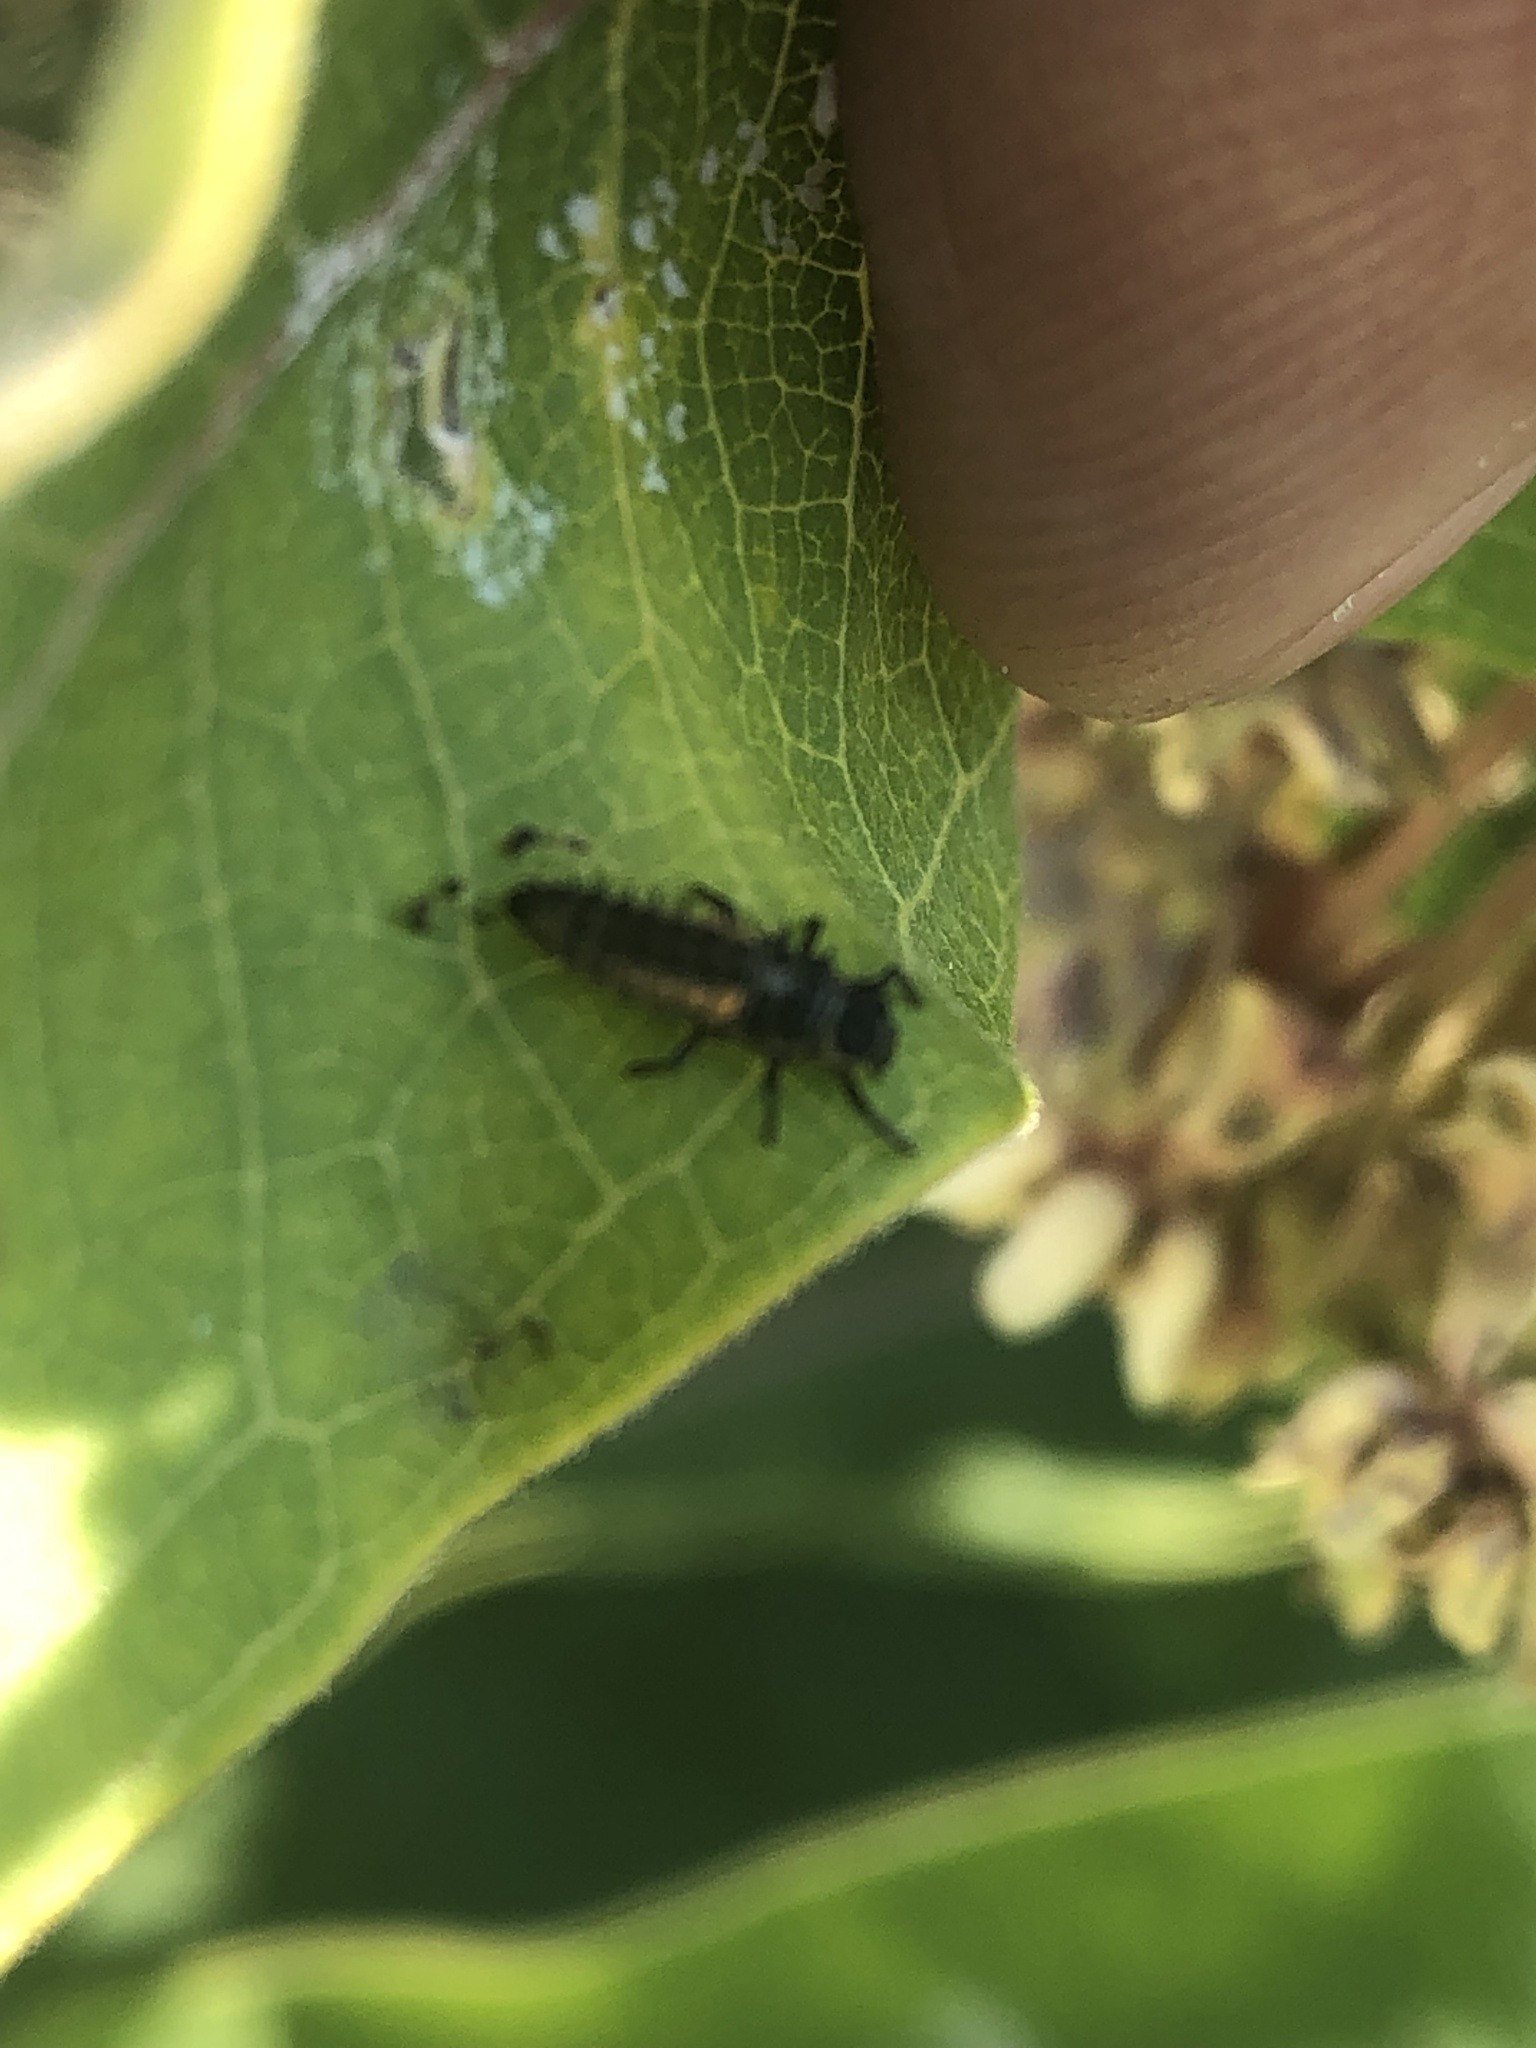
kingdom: Animalia
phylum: Arthropoda
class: Insecta
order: Coleoptera
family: Coccinellidae
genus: Harmonia
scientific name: Harmonia axyridis
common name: Harlequin ladybird
